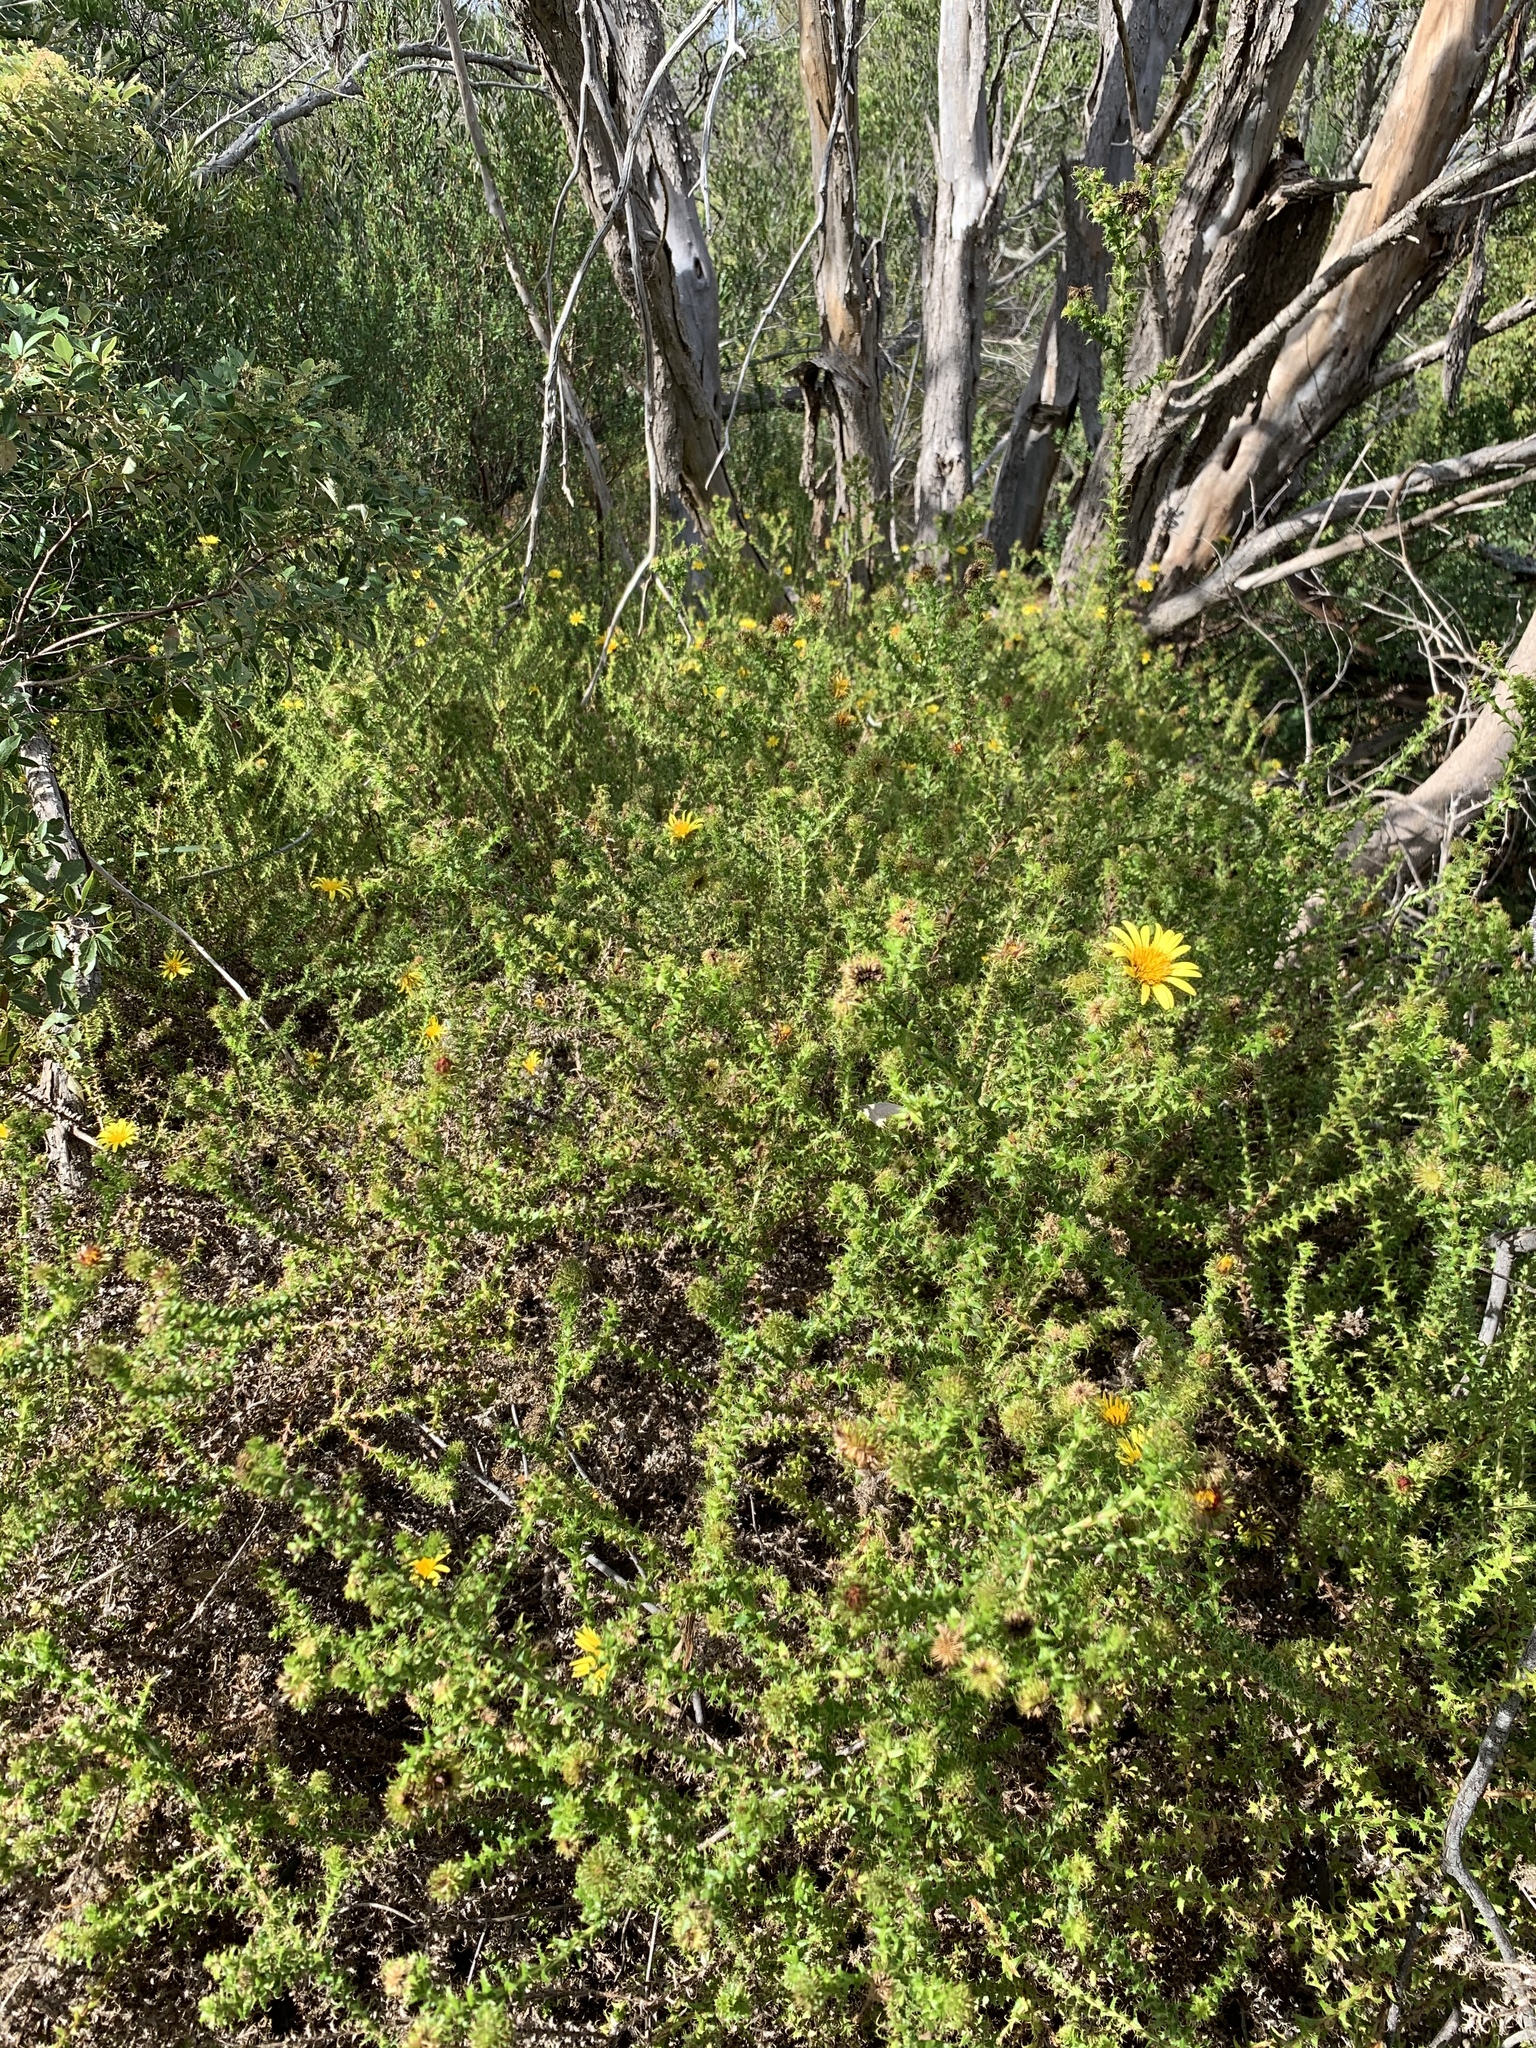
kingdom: Plantae
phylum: Tracheophyta
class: Magnoliopsida
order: Asterales
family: Asteraceae
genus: Cullumia
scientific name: Cullumia setosa
